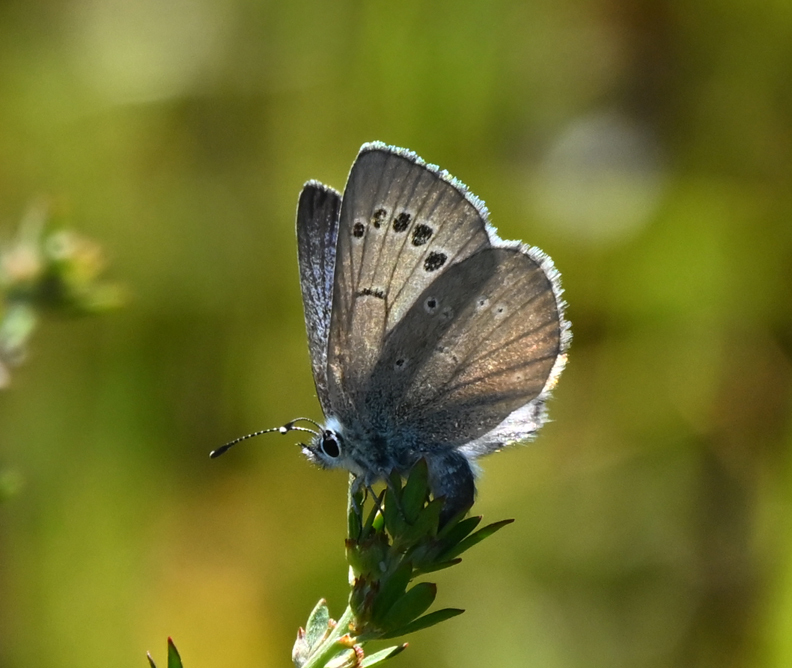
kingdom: Animalia
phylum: Arthropoda
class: Insecta
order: Lepidoptera
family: Lycaenidae
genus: Glaucopsyche
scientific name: Glaucopsyche lygdamus
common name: Silvery blue
